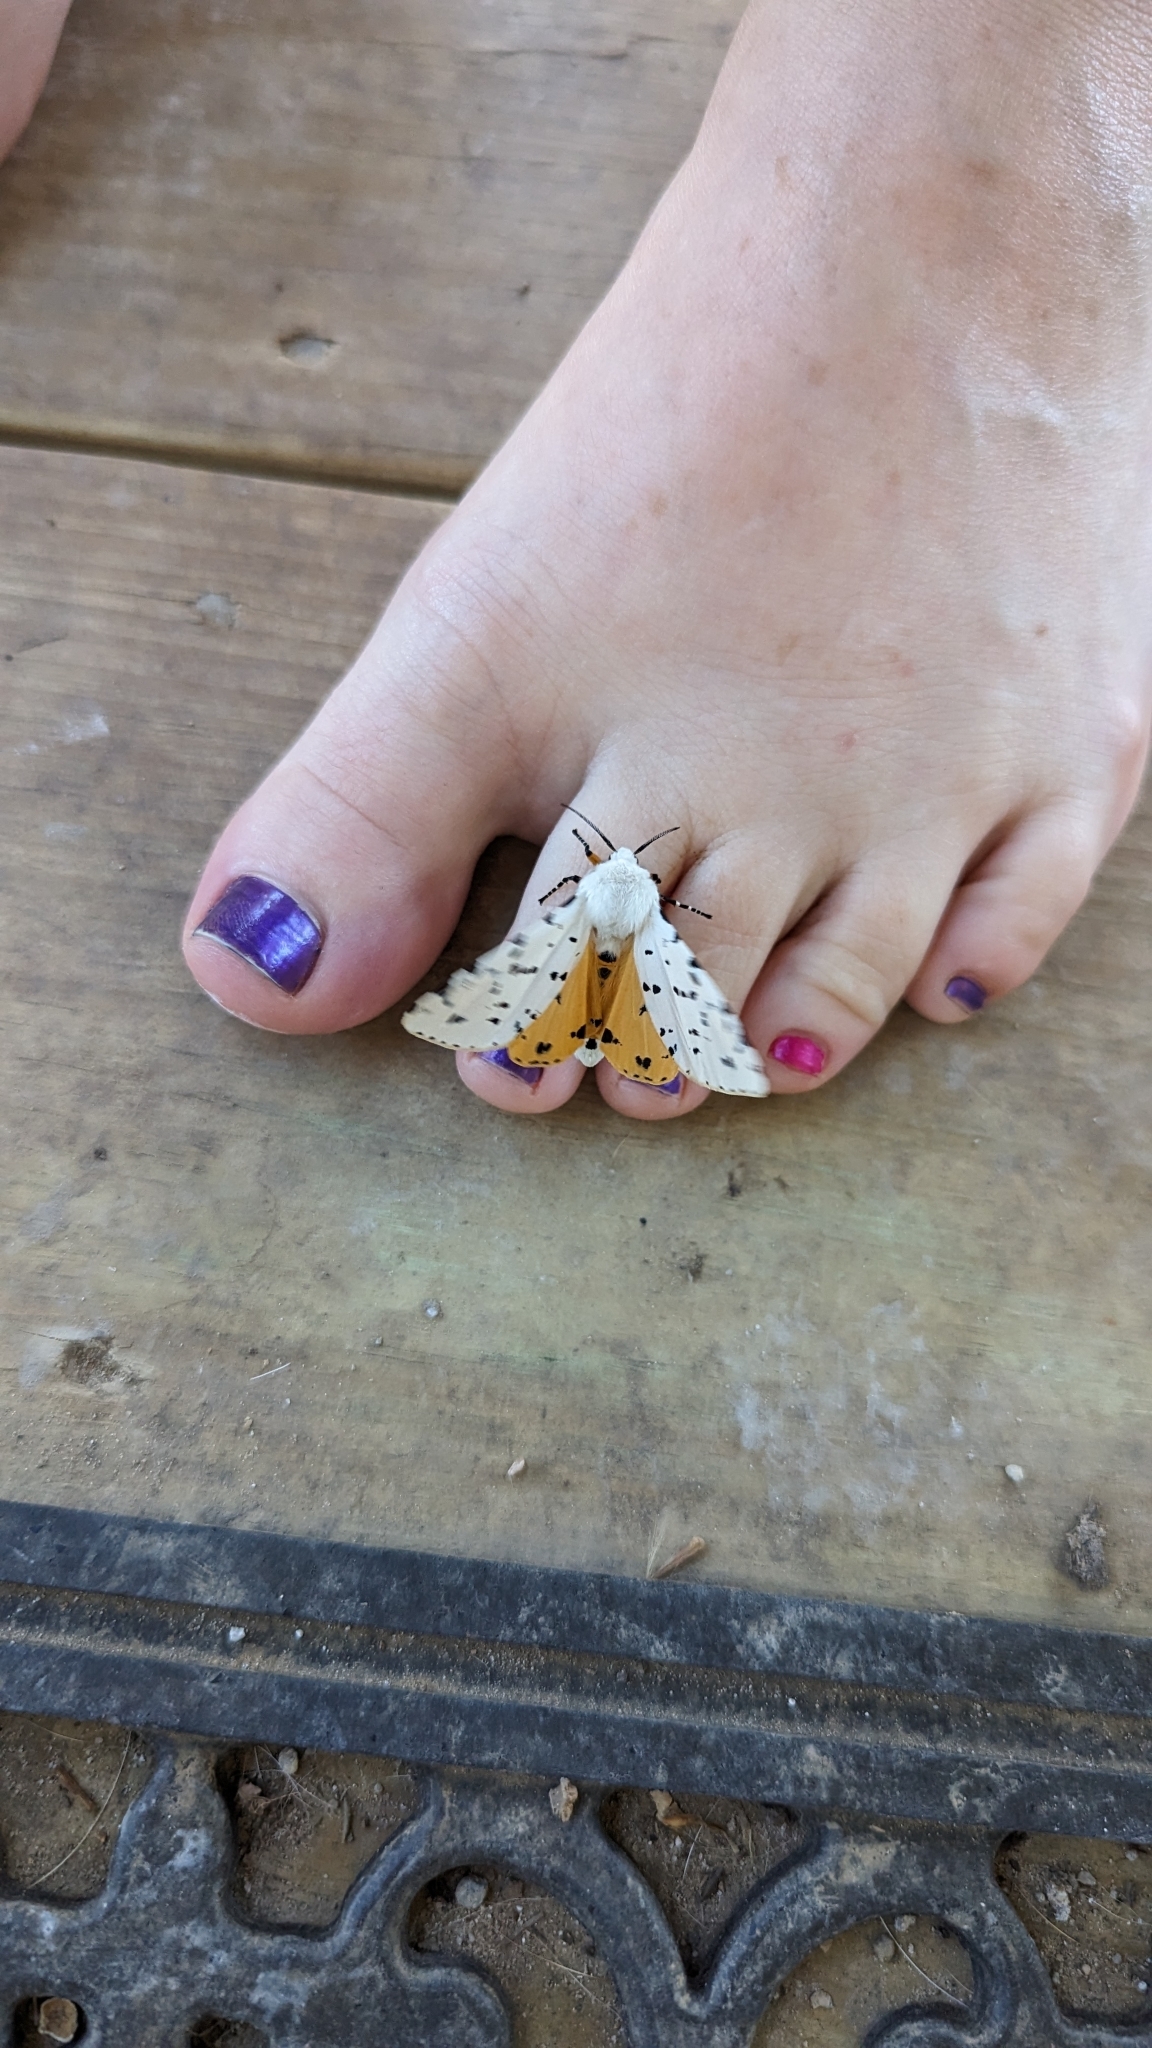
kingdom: Animalia
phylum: Arthropoda
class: Insecta
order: Lepidoptera
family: Erebidae
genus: Estigmene
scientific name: Estigmene acrea
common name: Salt marsh moth
